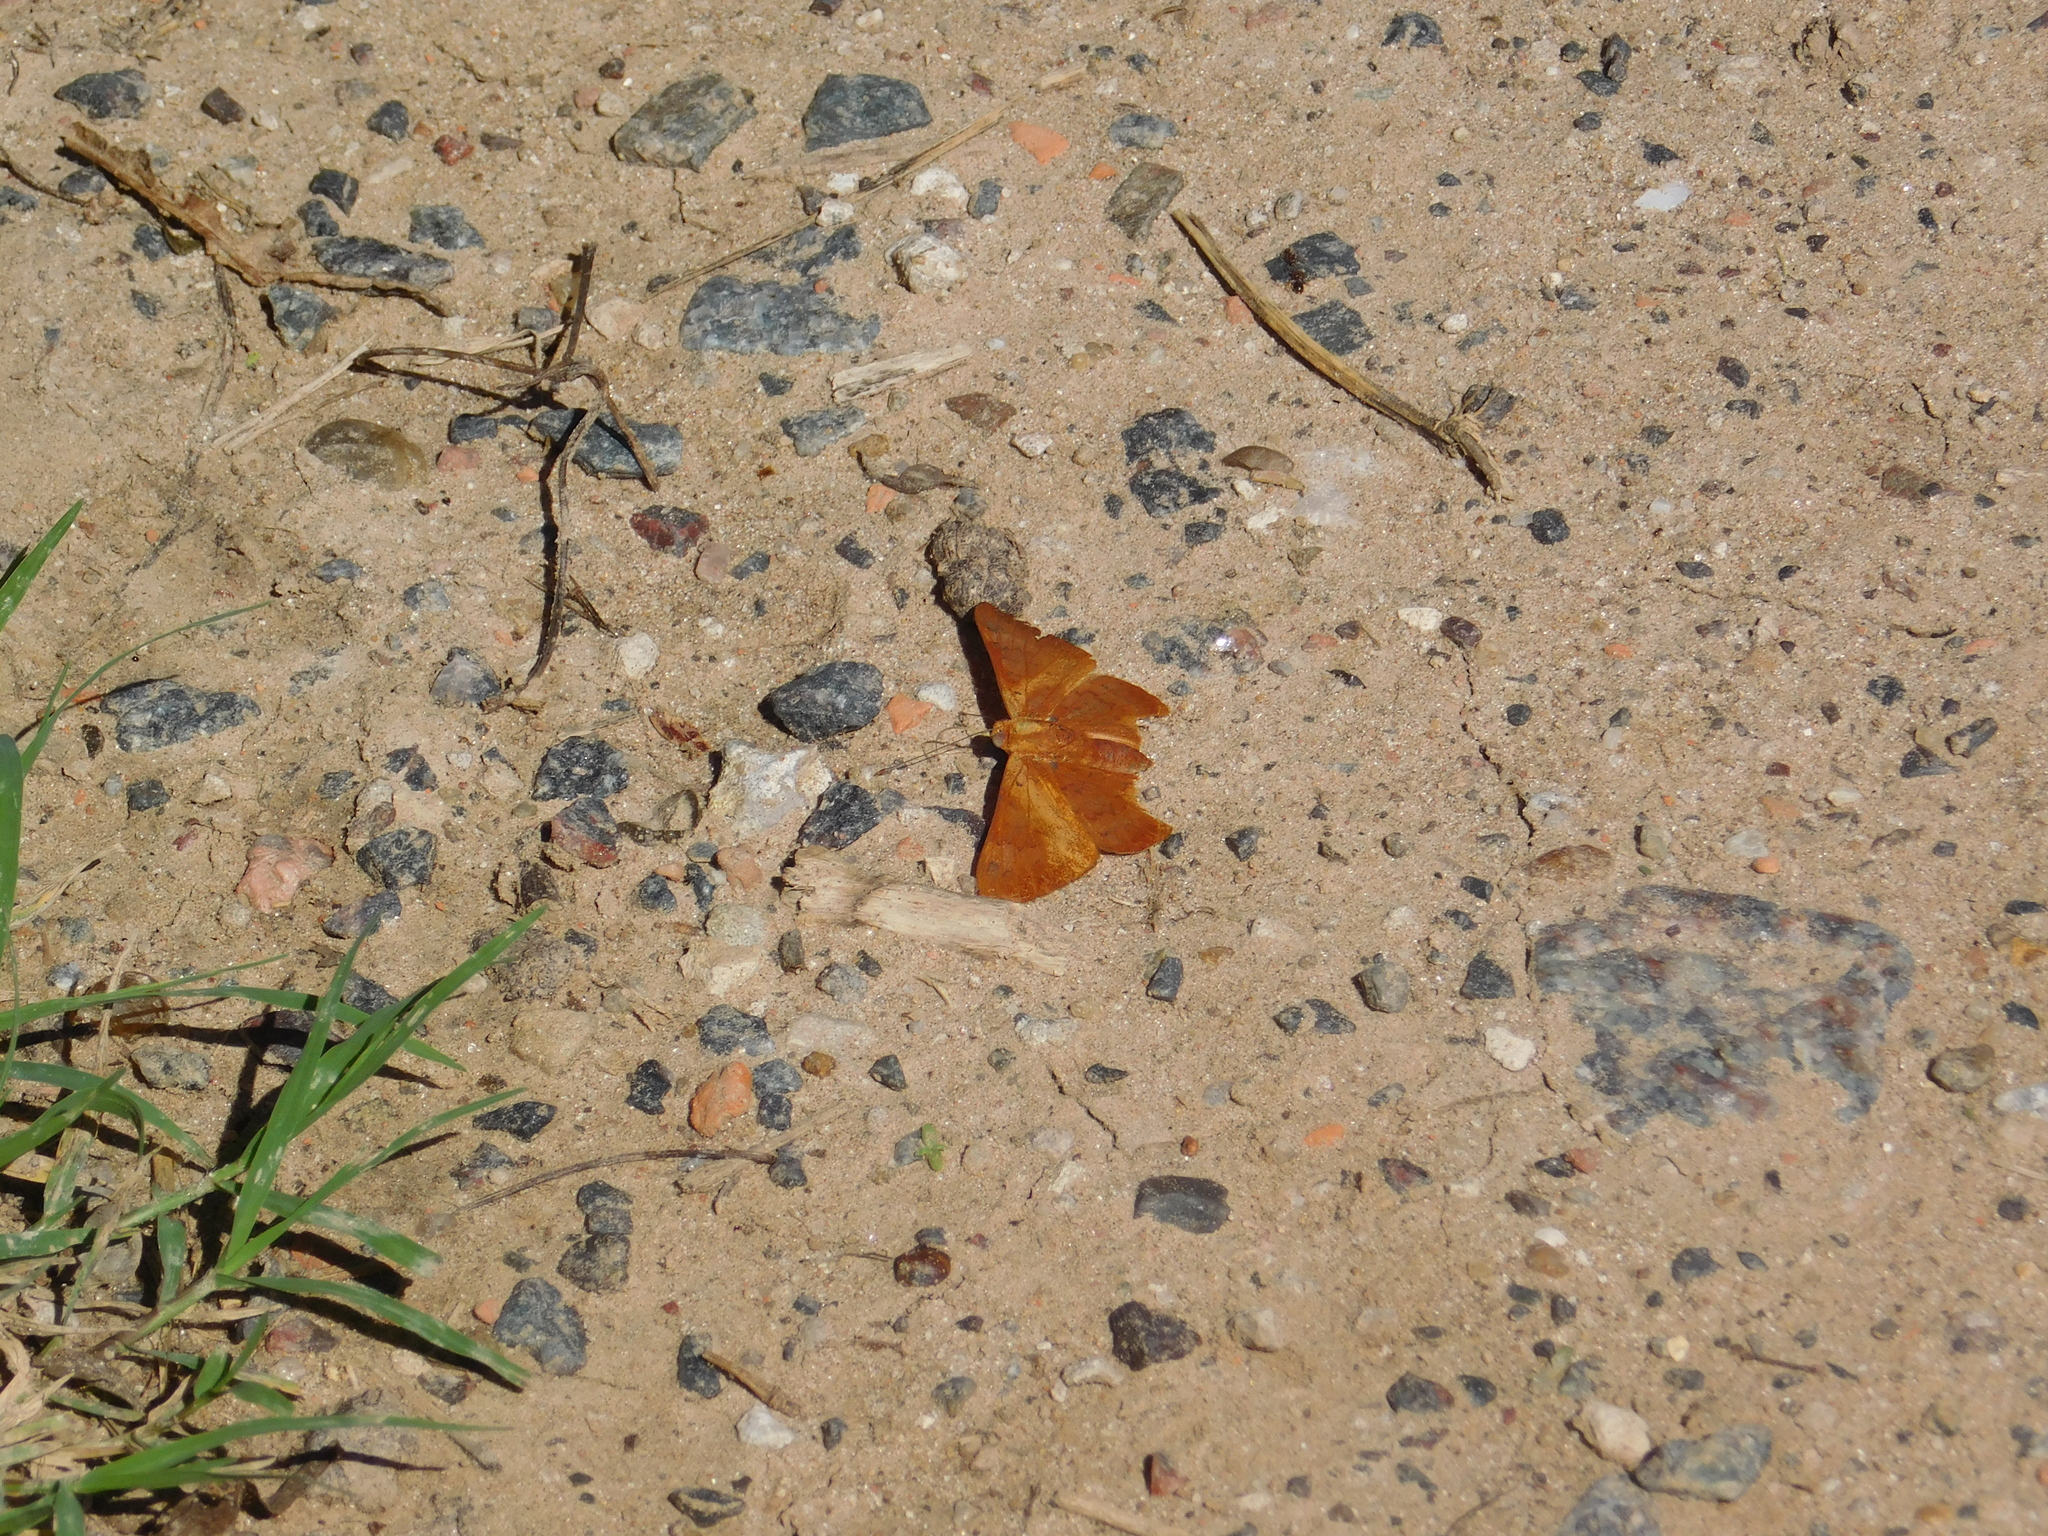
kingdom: Animalia
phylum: Arthropoda
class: Insecta
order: Lepidoptera
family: Lycaenidae
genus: Emesis
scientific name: Emesis russula
